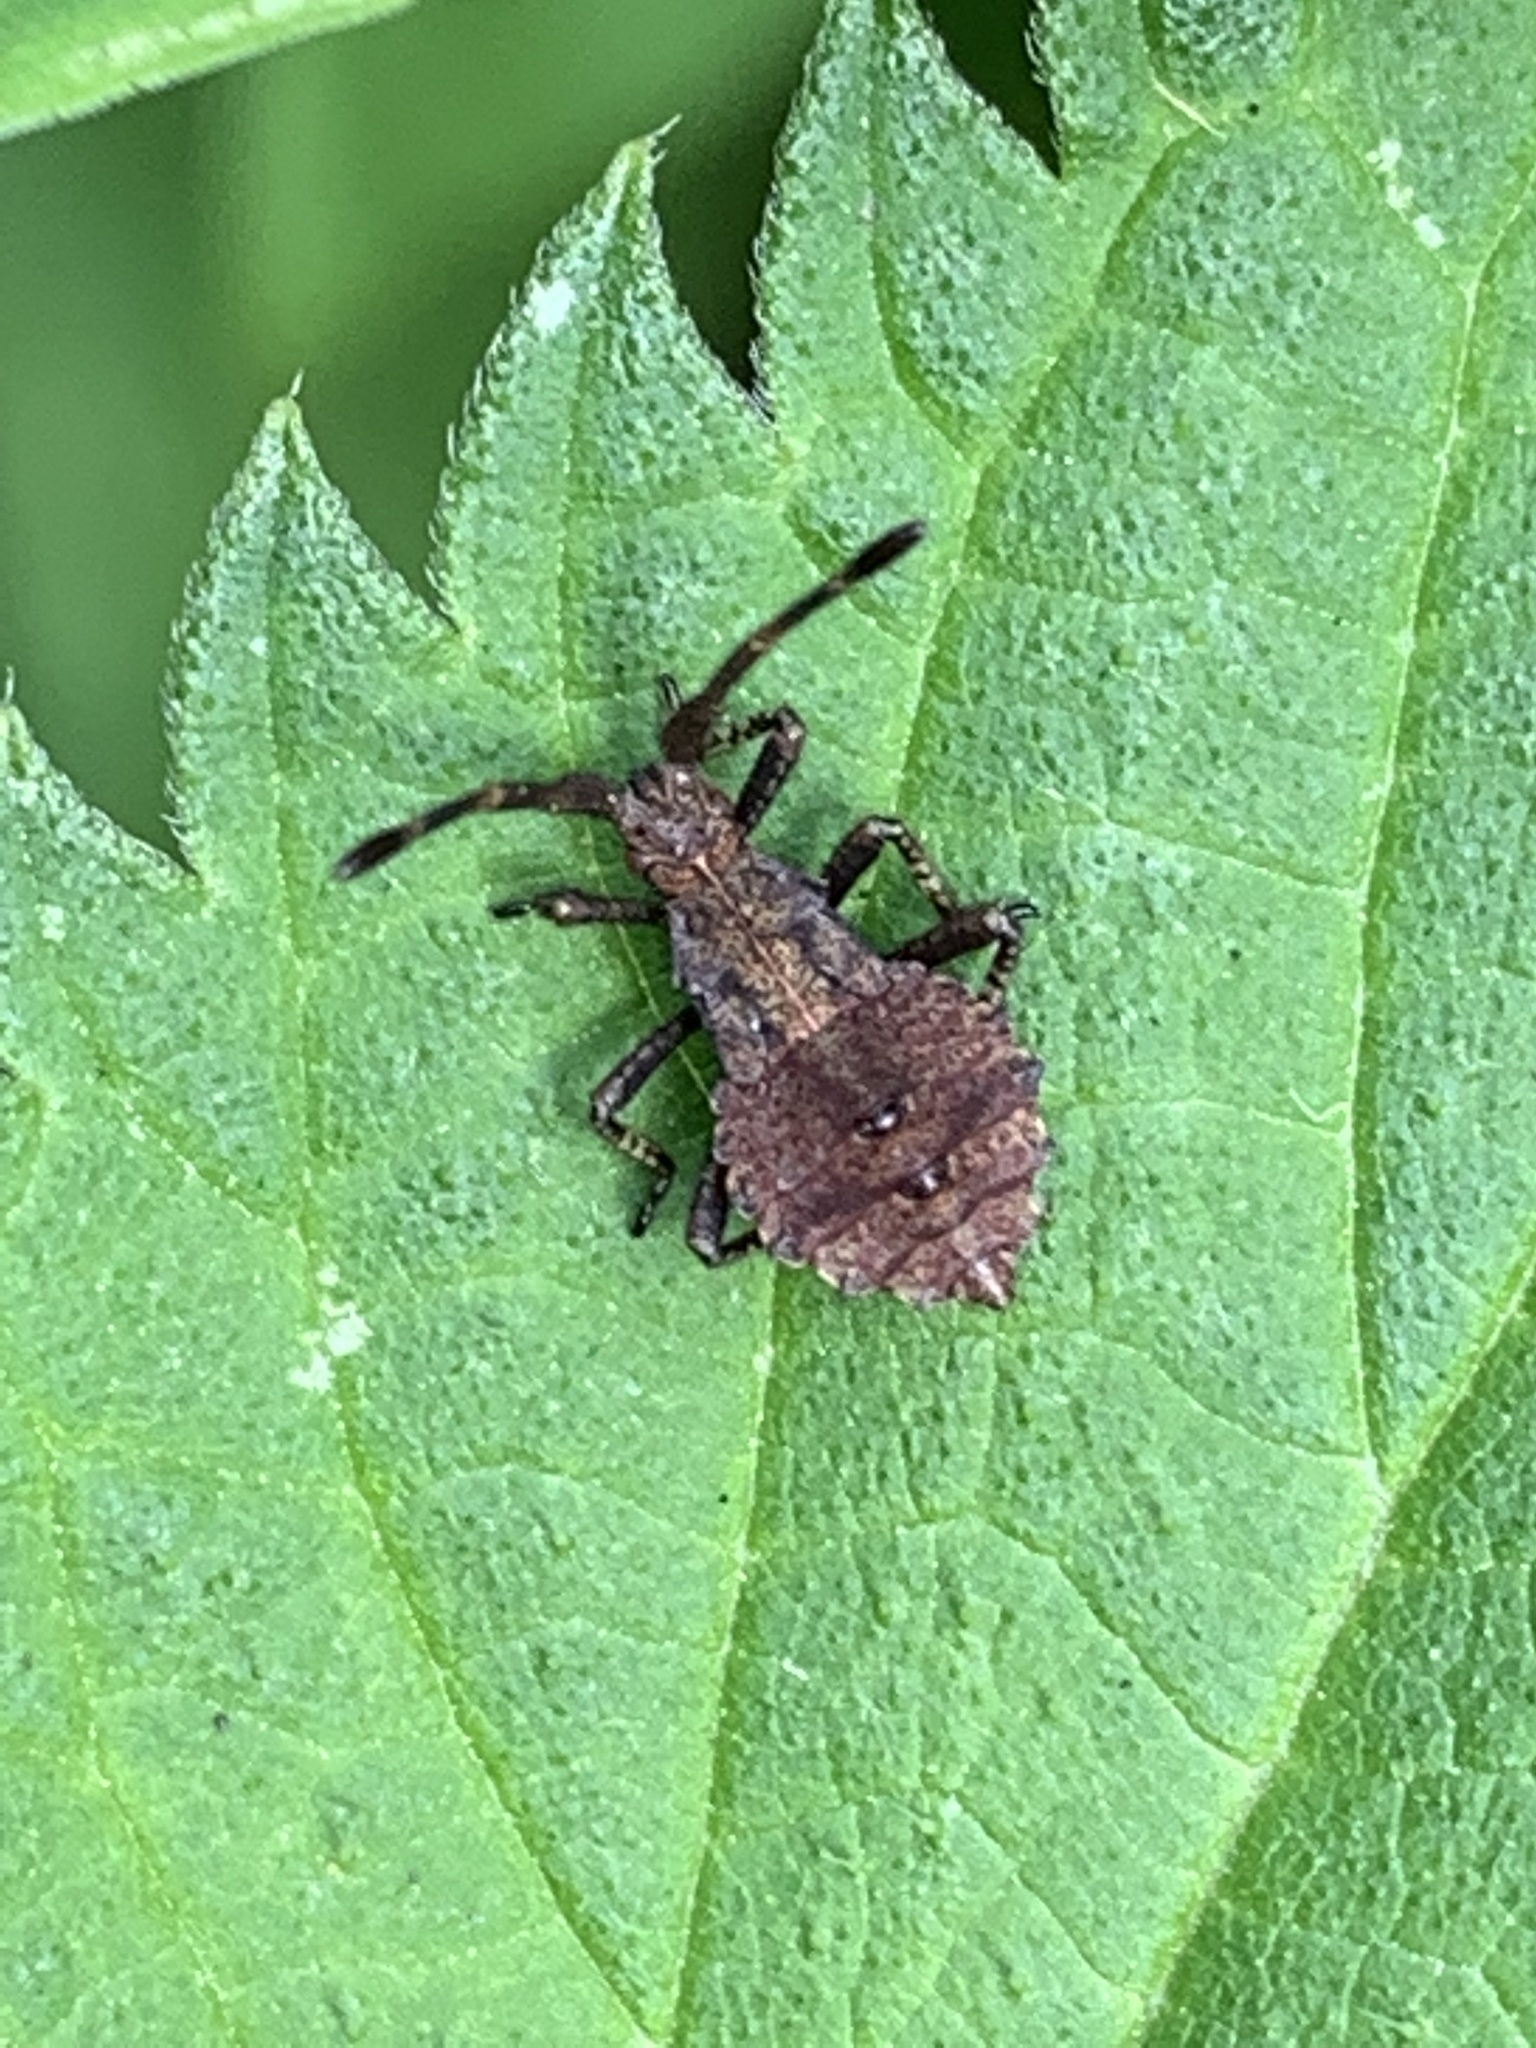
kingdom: Animalia
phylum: Arthropoda
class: Insecta
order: Hemiptera
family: Coreidae
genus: Coreus
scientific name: Coreus marginatus
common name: Dock bug
